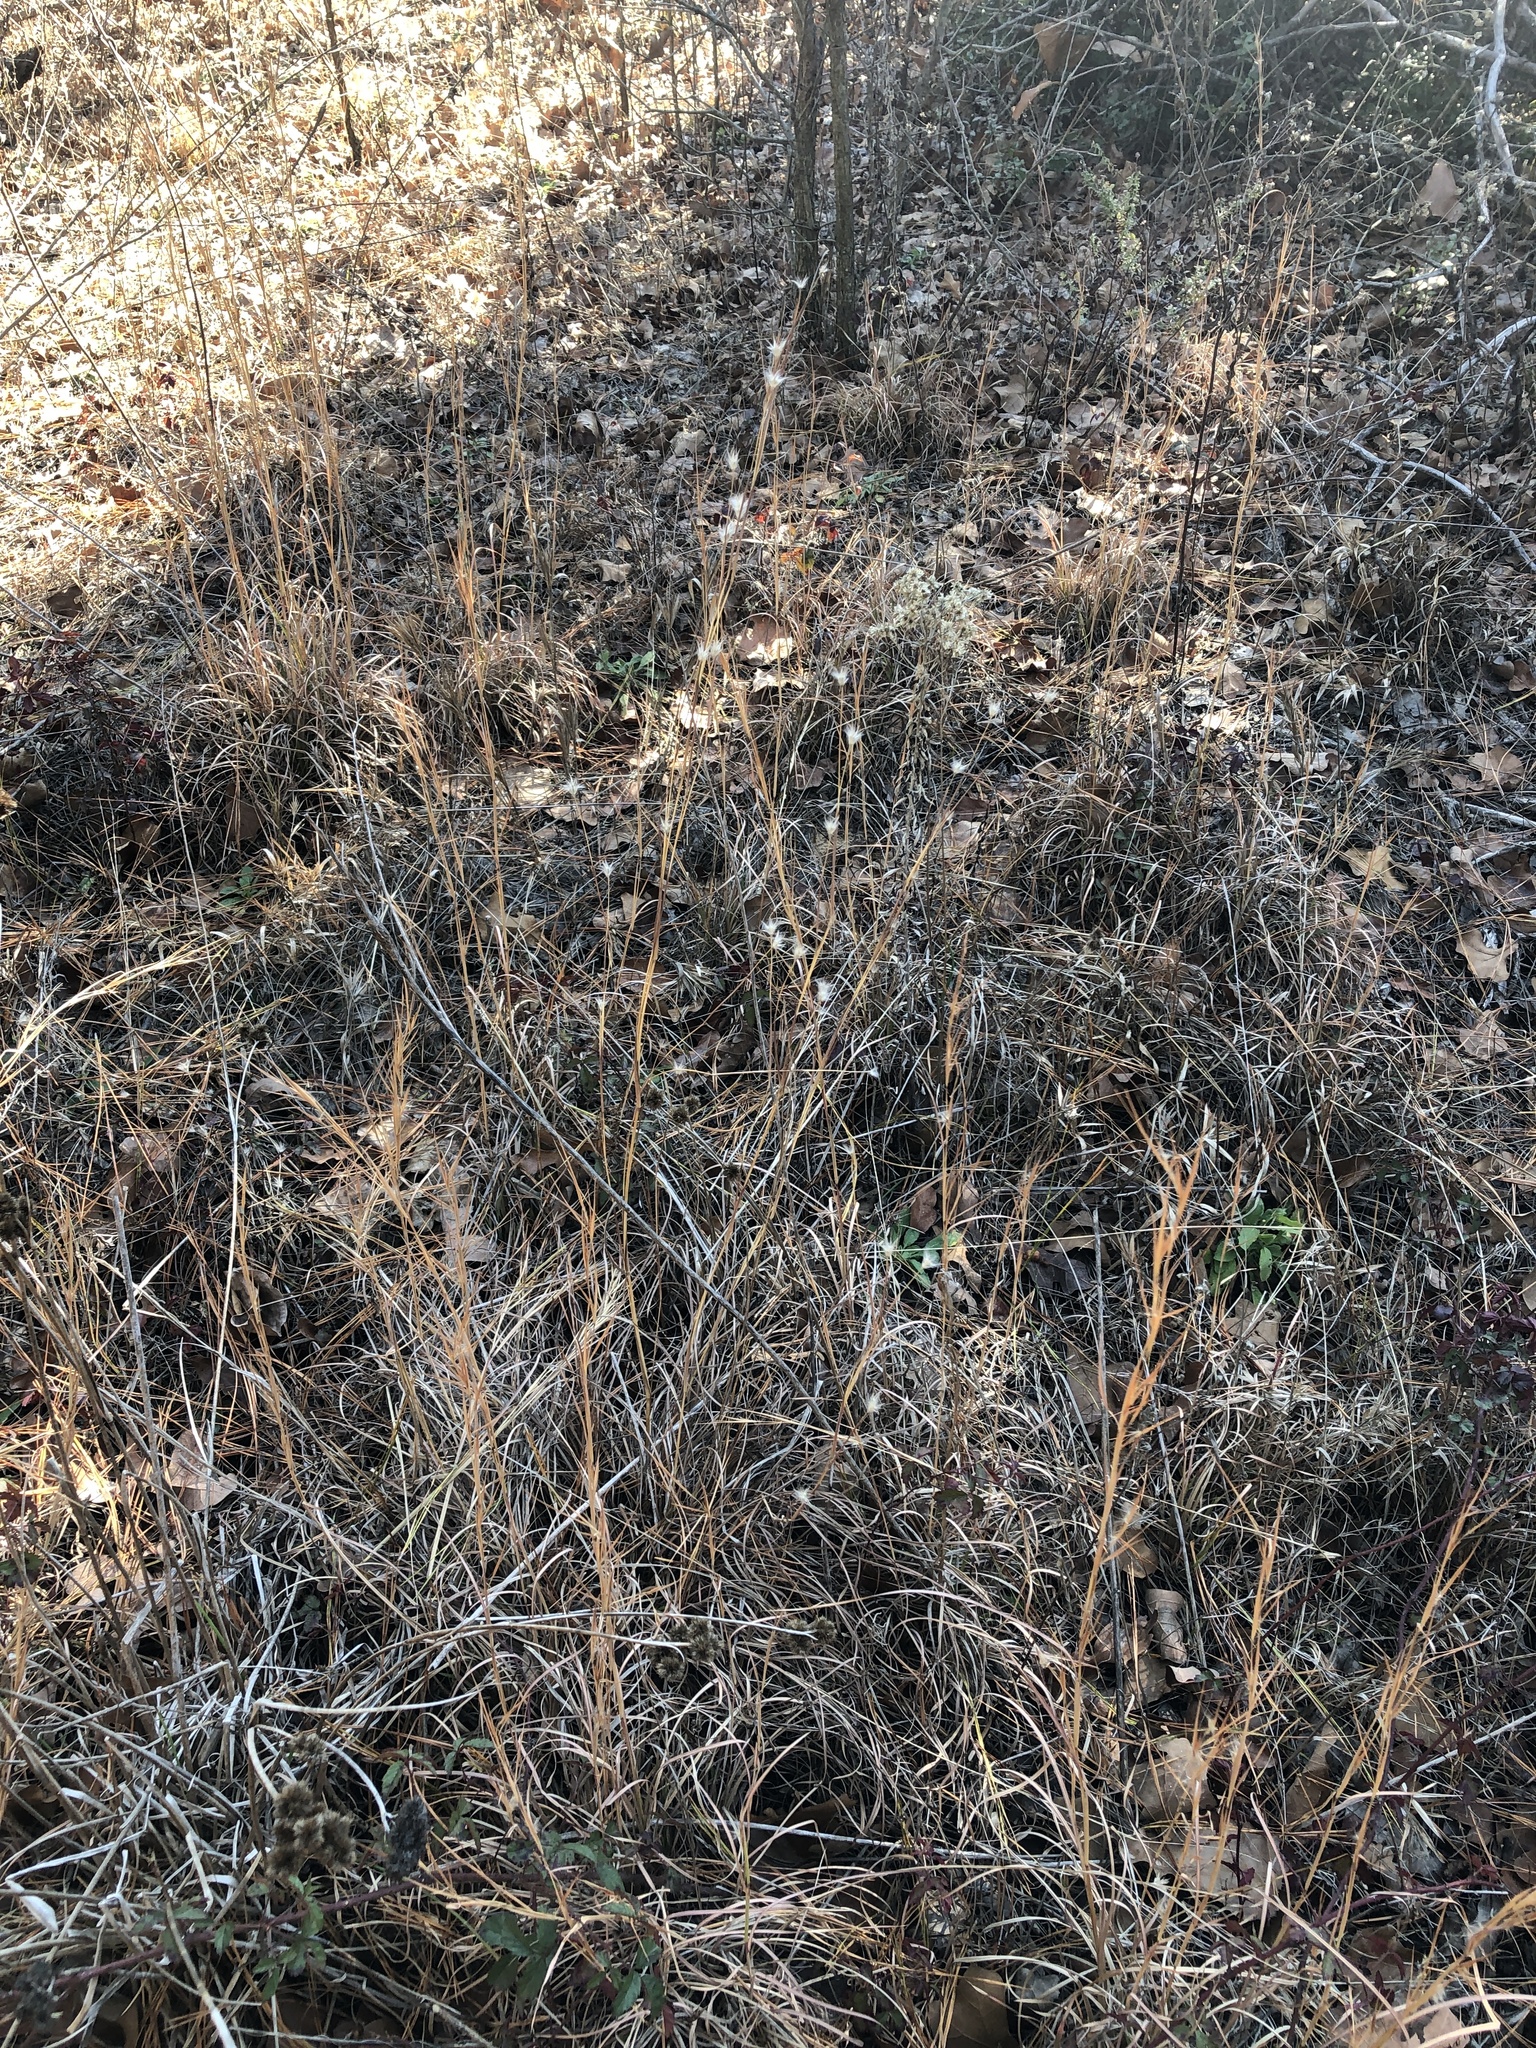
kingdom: Plantae
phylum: Tracheophyta
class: Liliopsida
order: Poales
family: Poaceae
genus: Andropogon
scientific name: Andropogon ternarius
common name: Split bluestem
